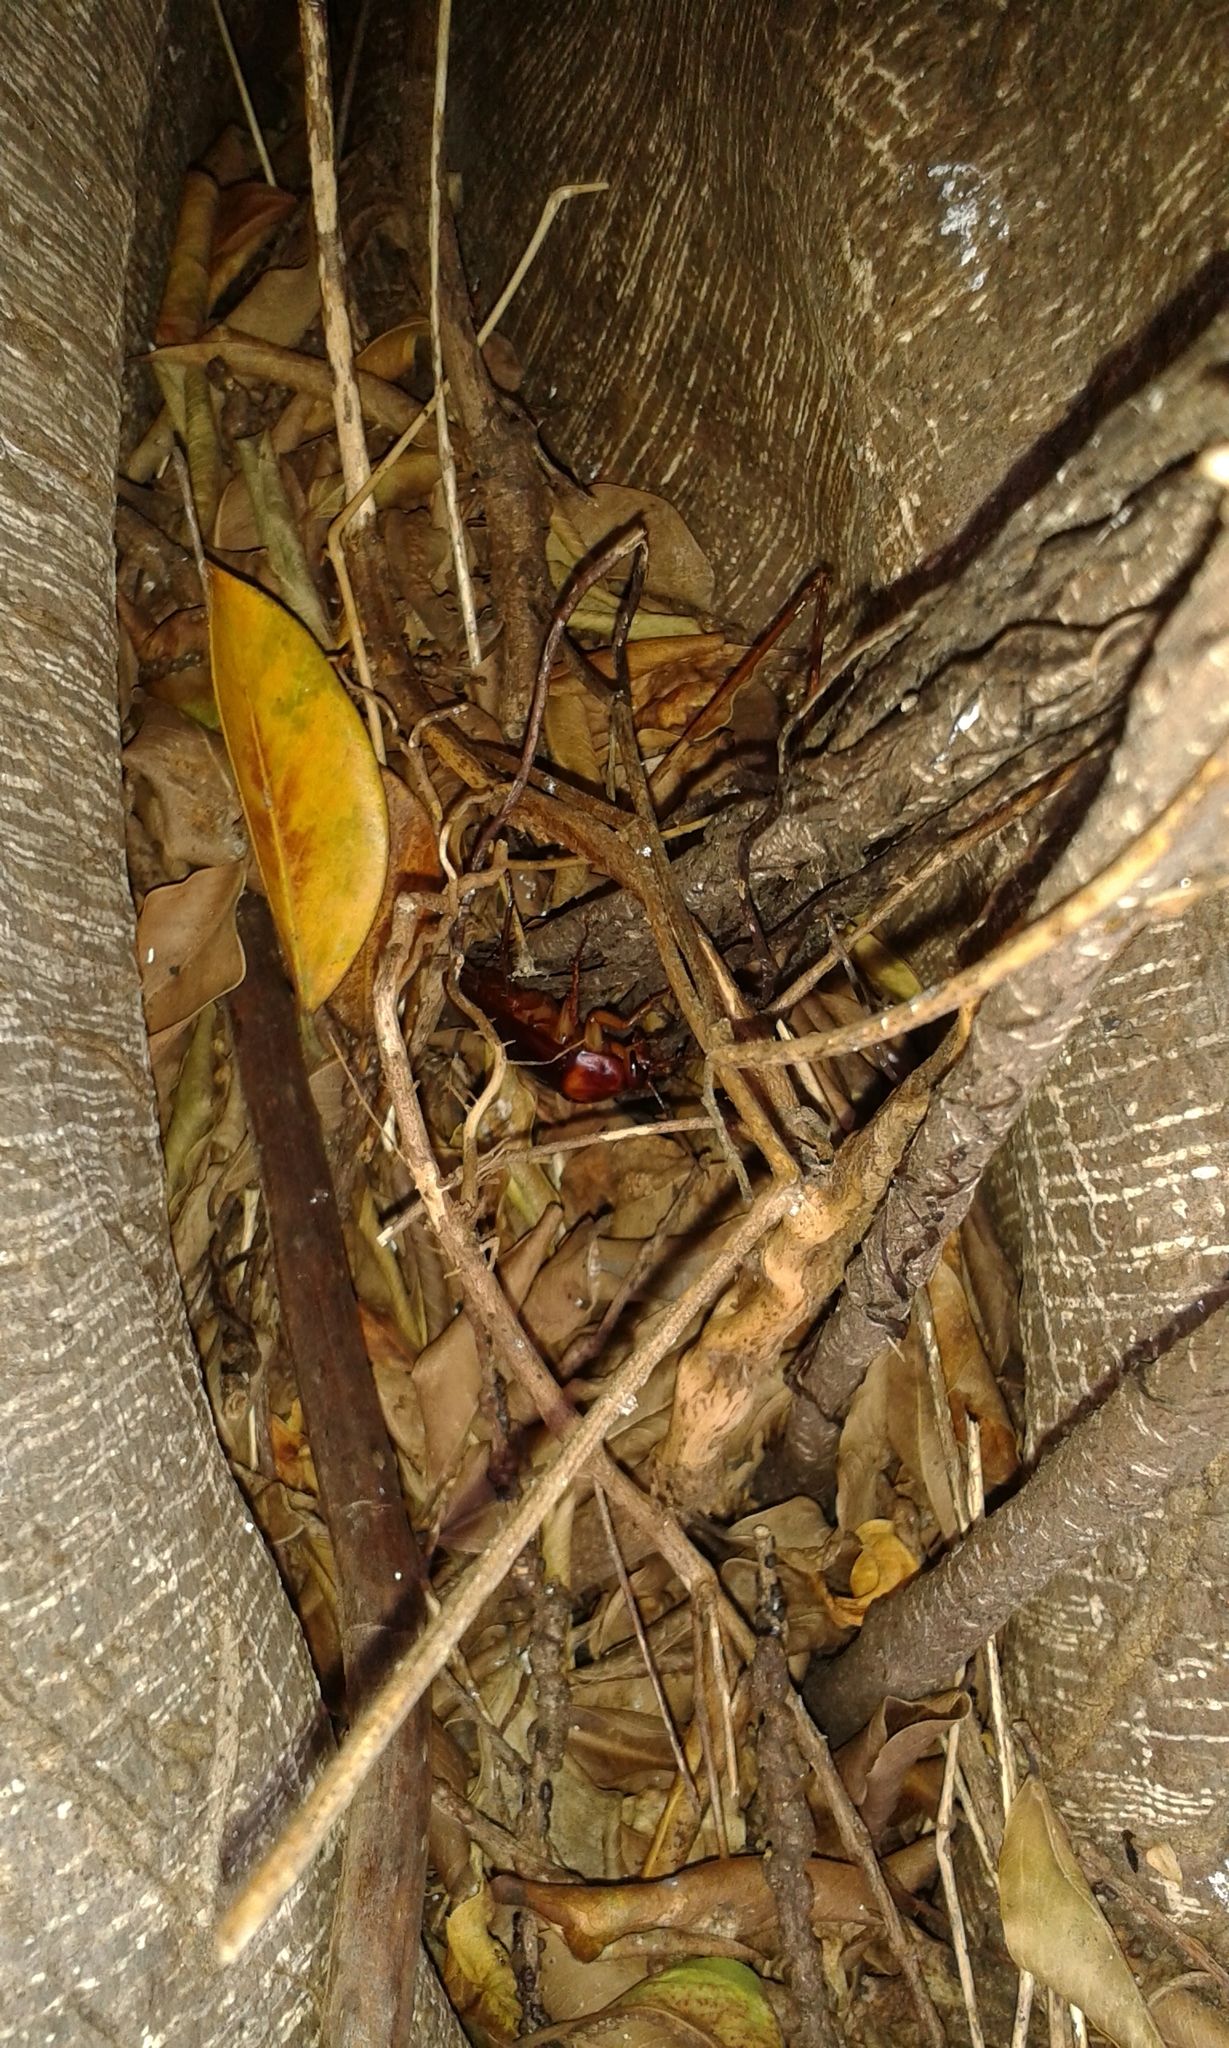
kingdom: Animalia
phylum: Arthropoda
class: Insecta
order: Blattodea
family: Blattidae
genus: Periplaneta
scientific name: Periplaneta americana
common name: American cockroach
